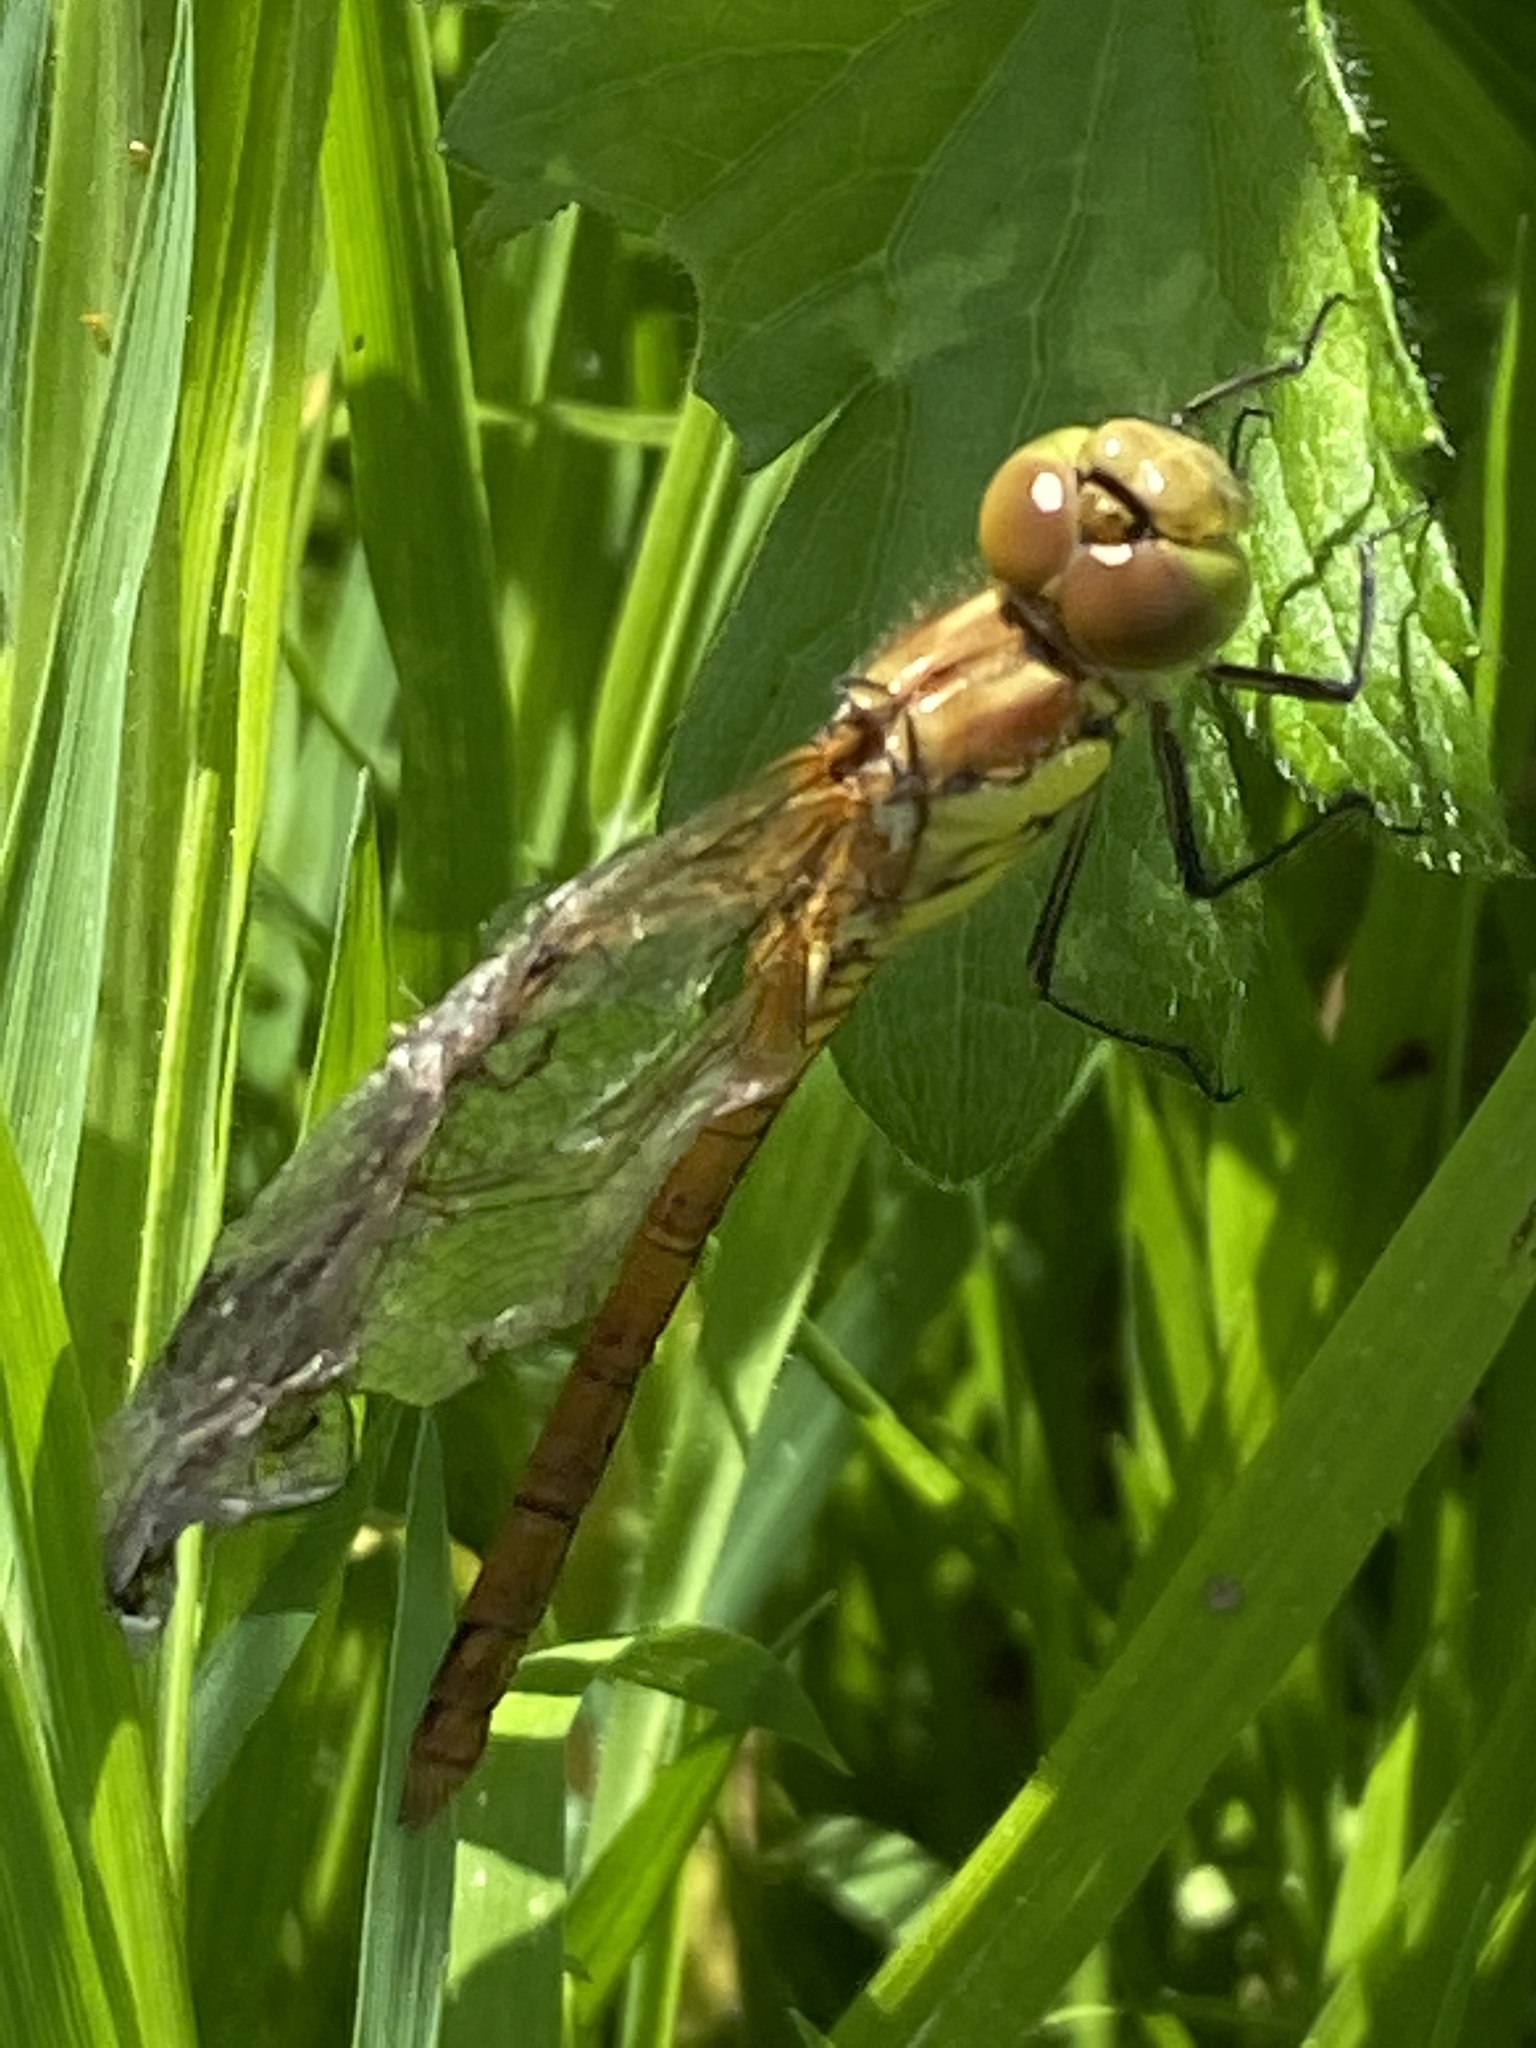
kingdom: Animalia
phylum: Arthropoda
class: Insecta
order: Odonata
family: Libellulidae
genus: Sympetrum
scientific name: Sympetrum striolatum
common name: Common darter
